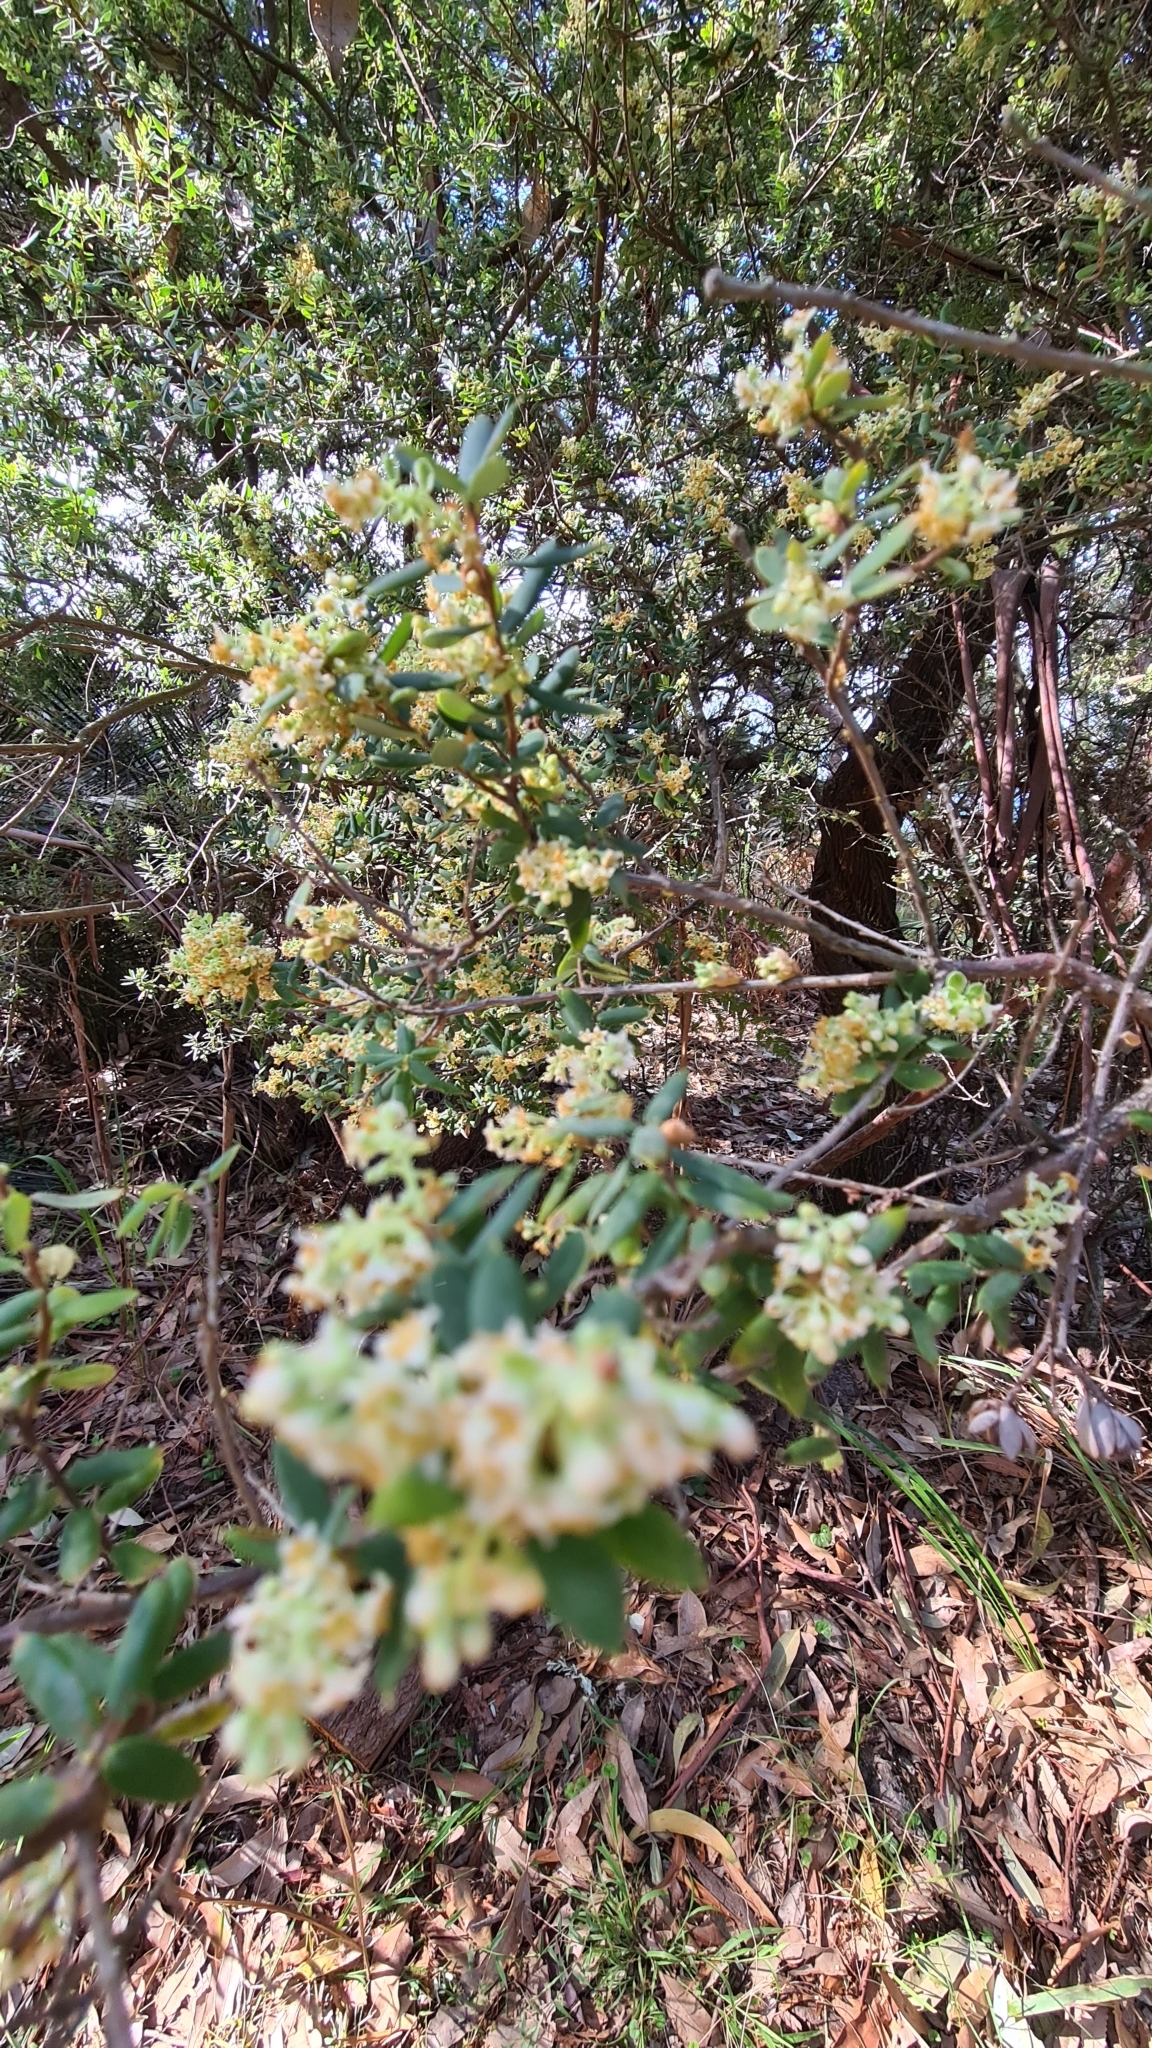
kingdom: Plantae
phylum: Tracheophyta
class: Magnoliopsida
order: Ericales
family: Ericaceae
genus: Monotoca
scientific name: Monotoca elliptica
